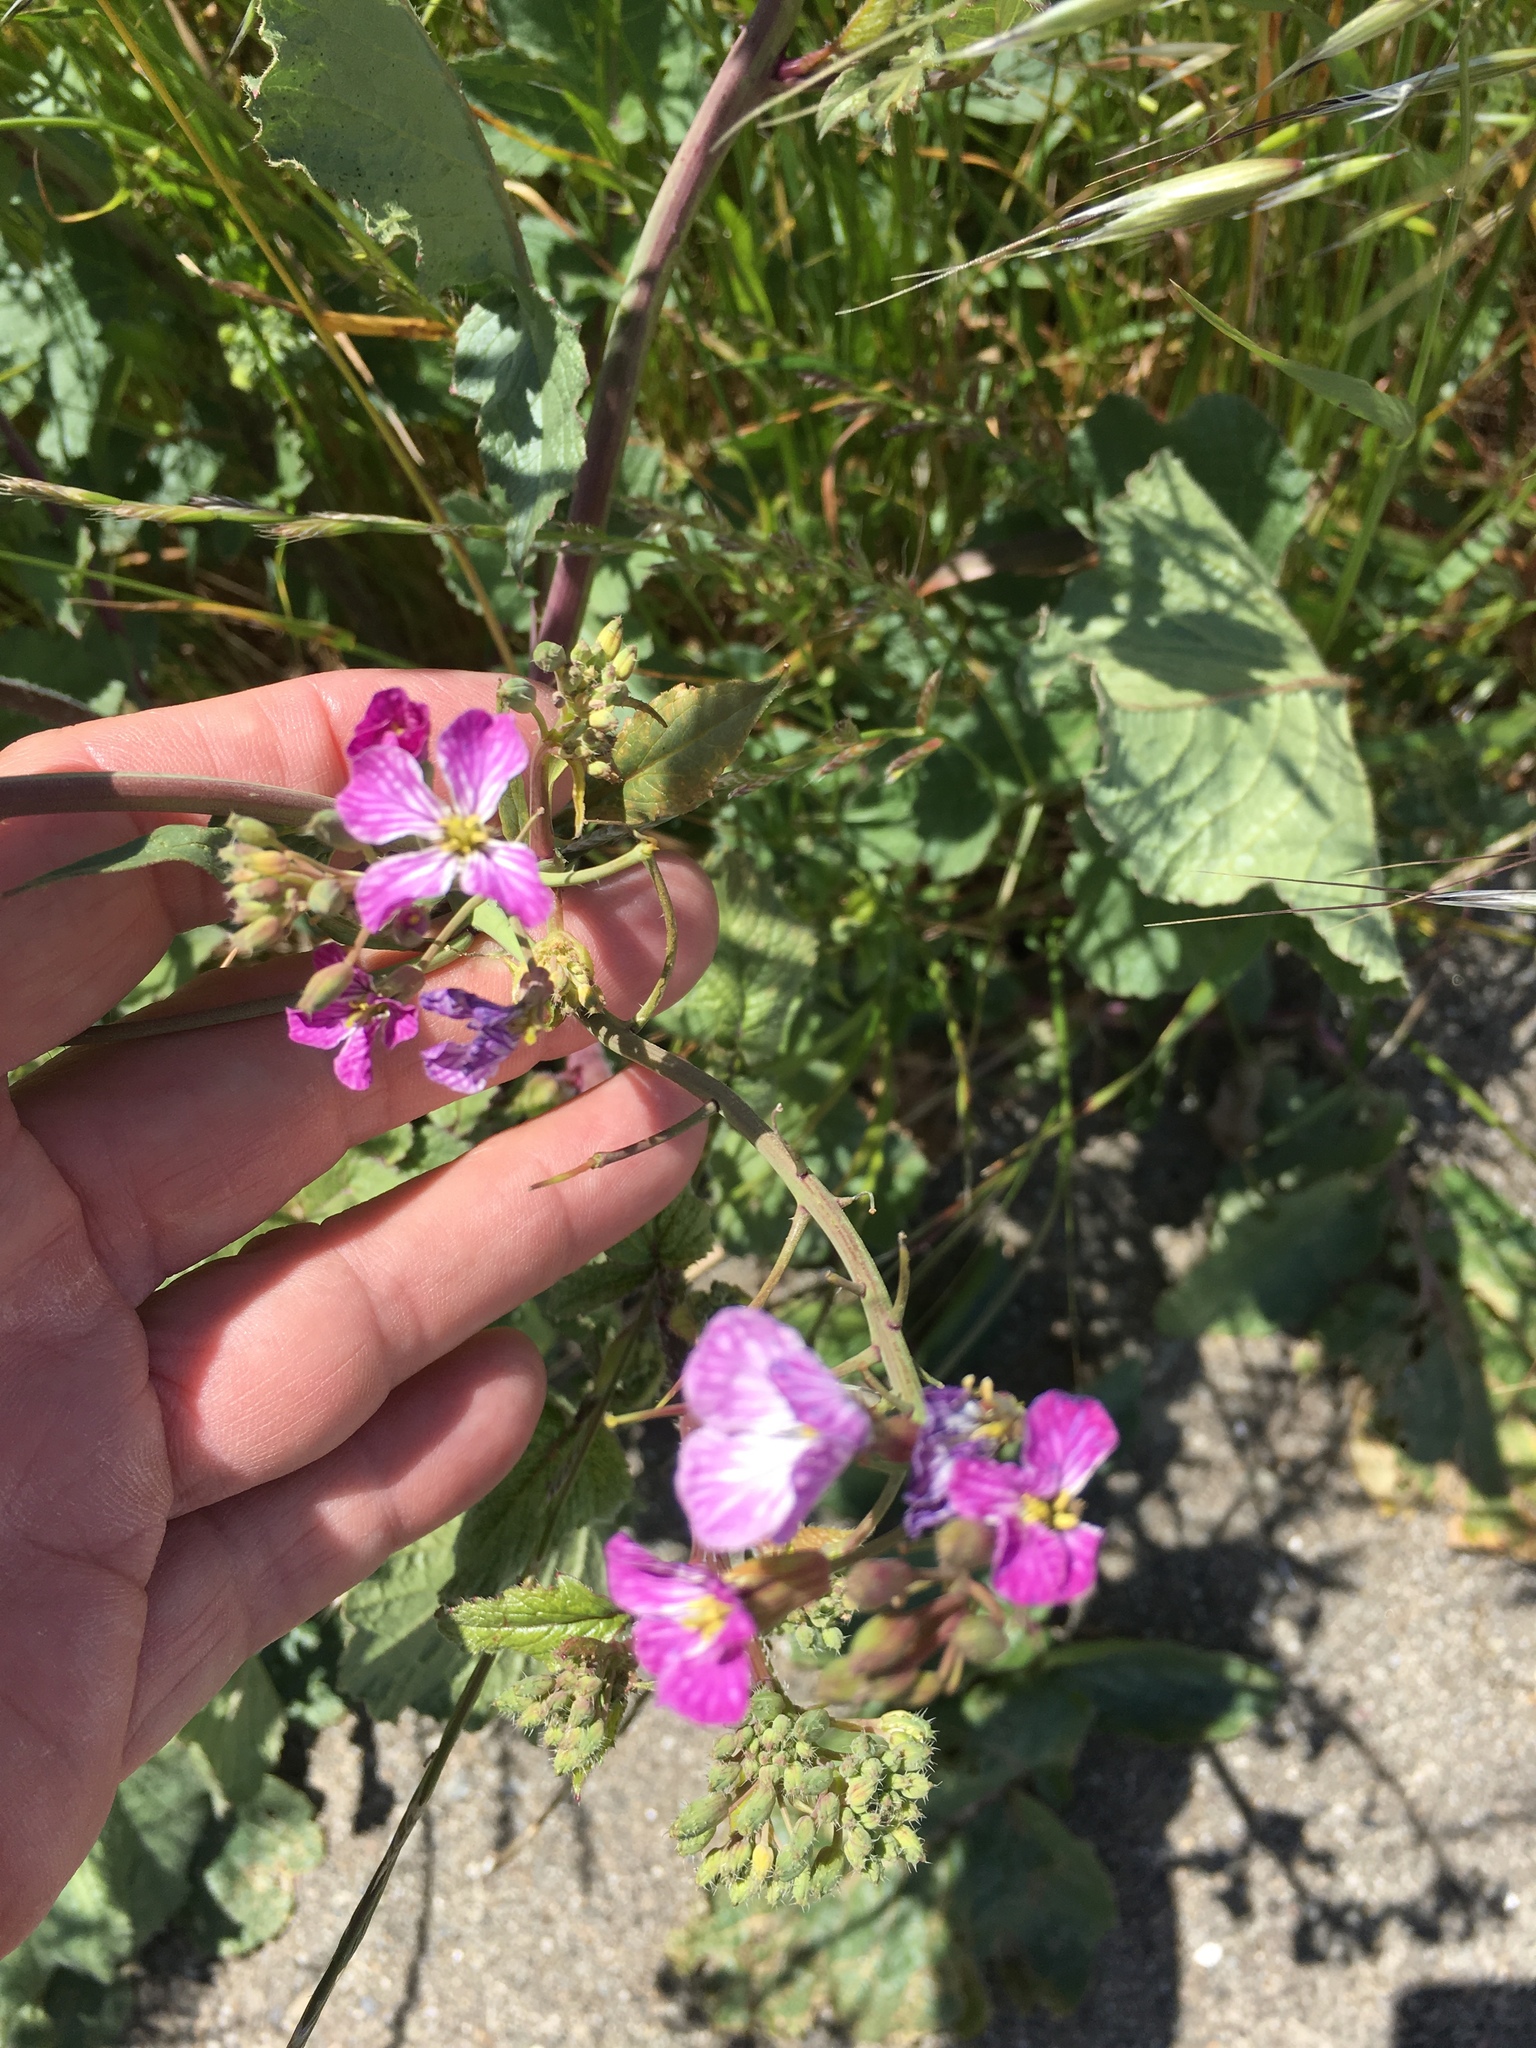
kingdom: Plantae
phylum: Tracheophyta
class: Magnoliopsida
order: Brassicales
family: Brassicaceae
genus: Raphanus
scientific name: Raphanus sativus
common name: Cultivated radish
